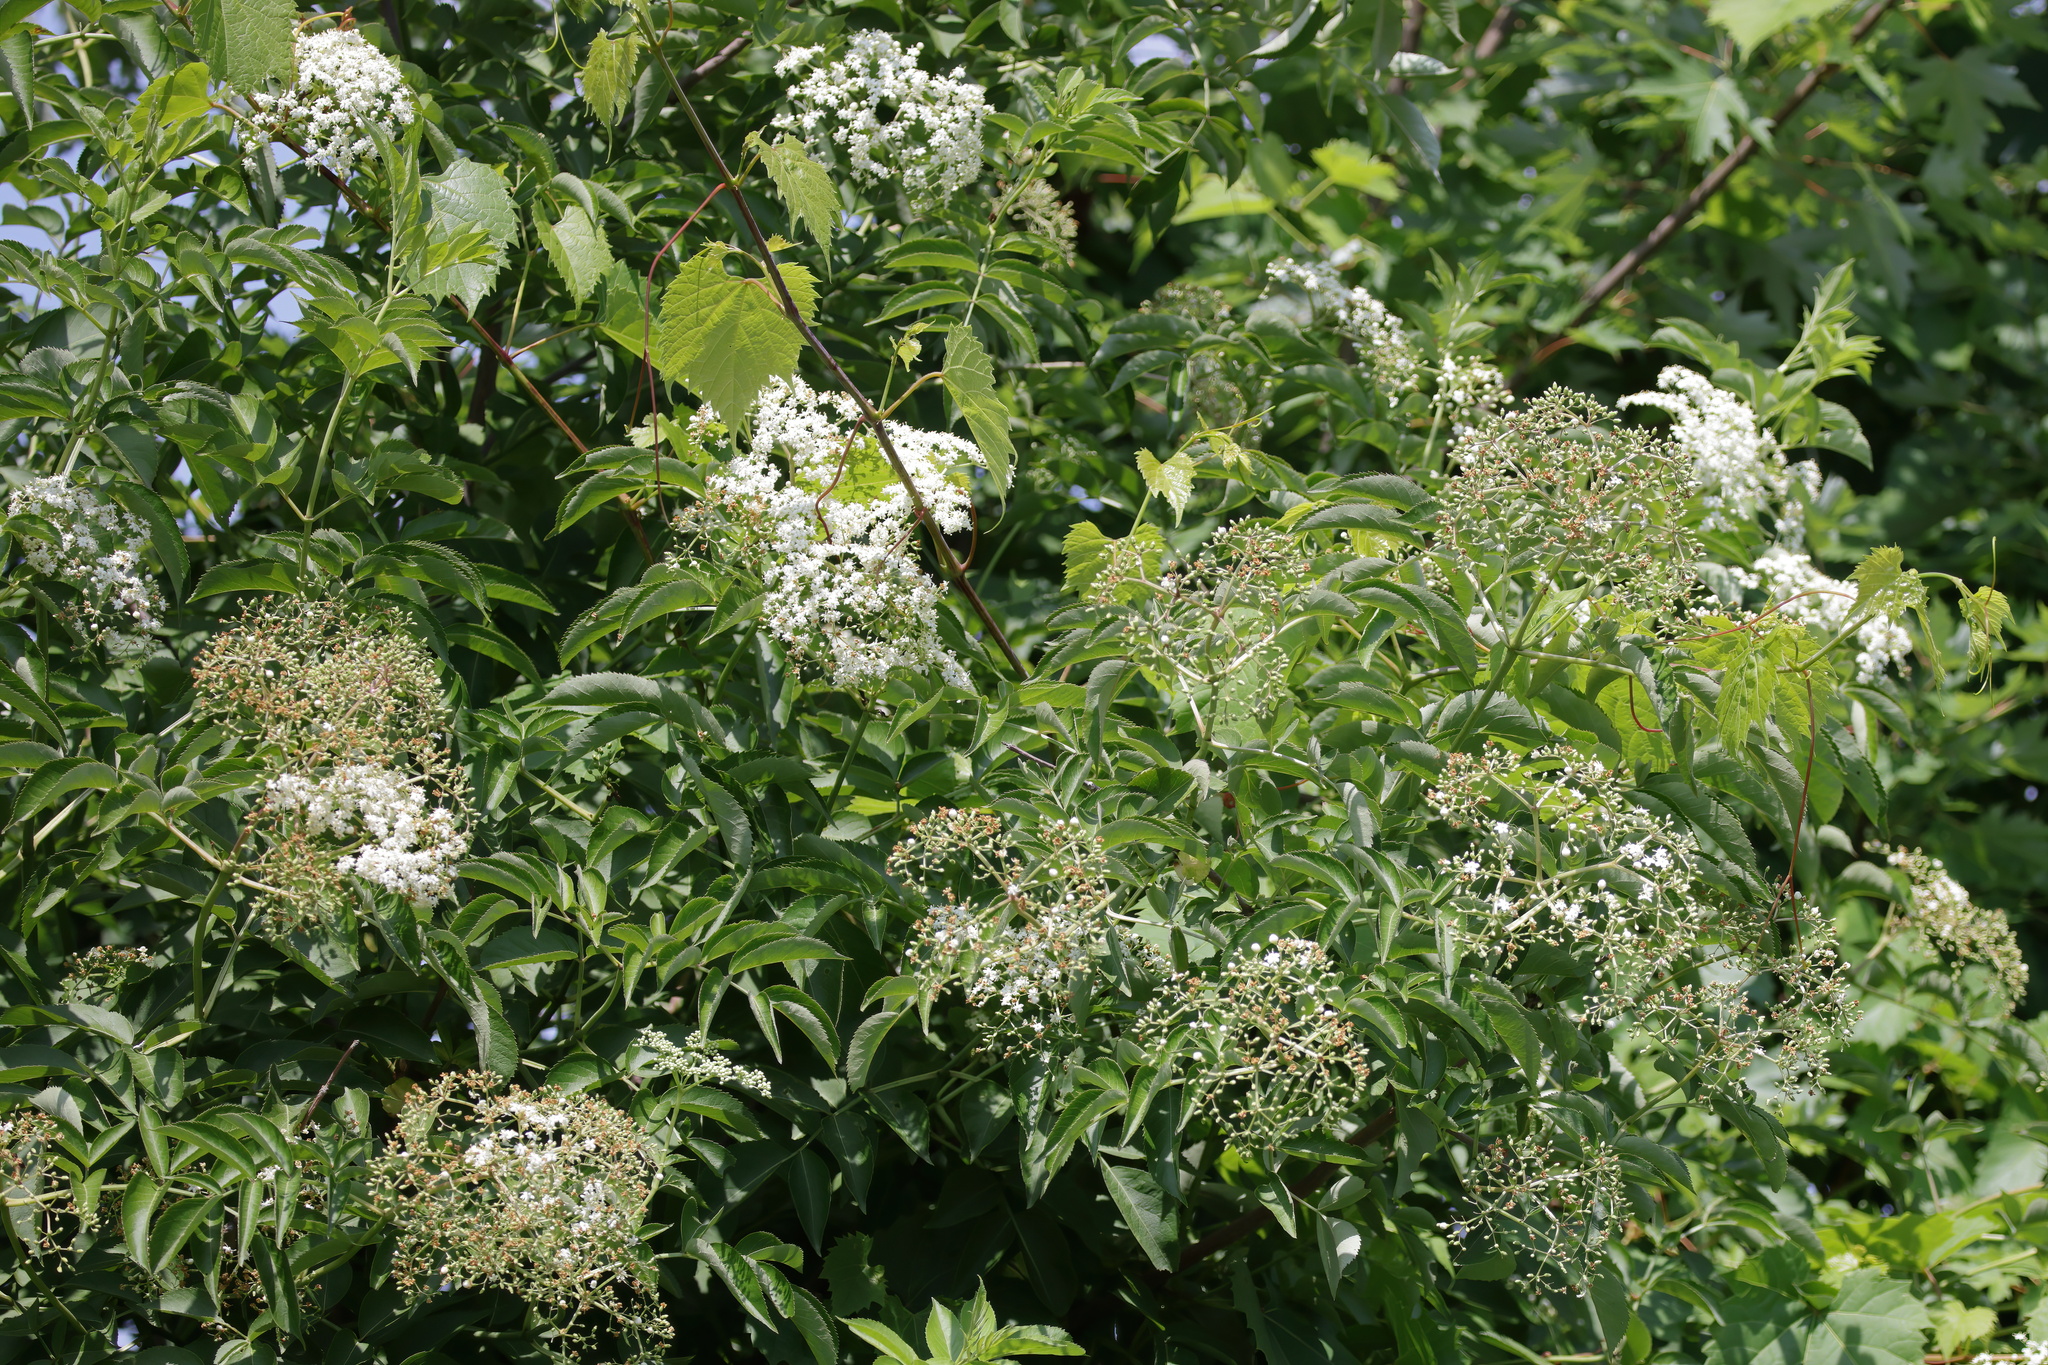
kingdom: Plantae
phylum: Tracheophyta
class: Magnoliopsida
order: Dipsacales
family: Viburnaceae
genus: Sambucus
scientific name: Sambucus canadensis
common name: American elder
